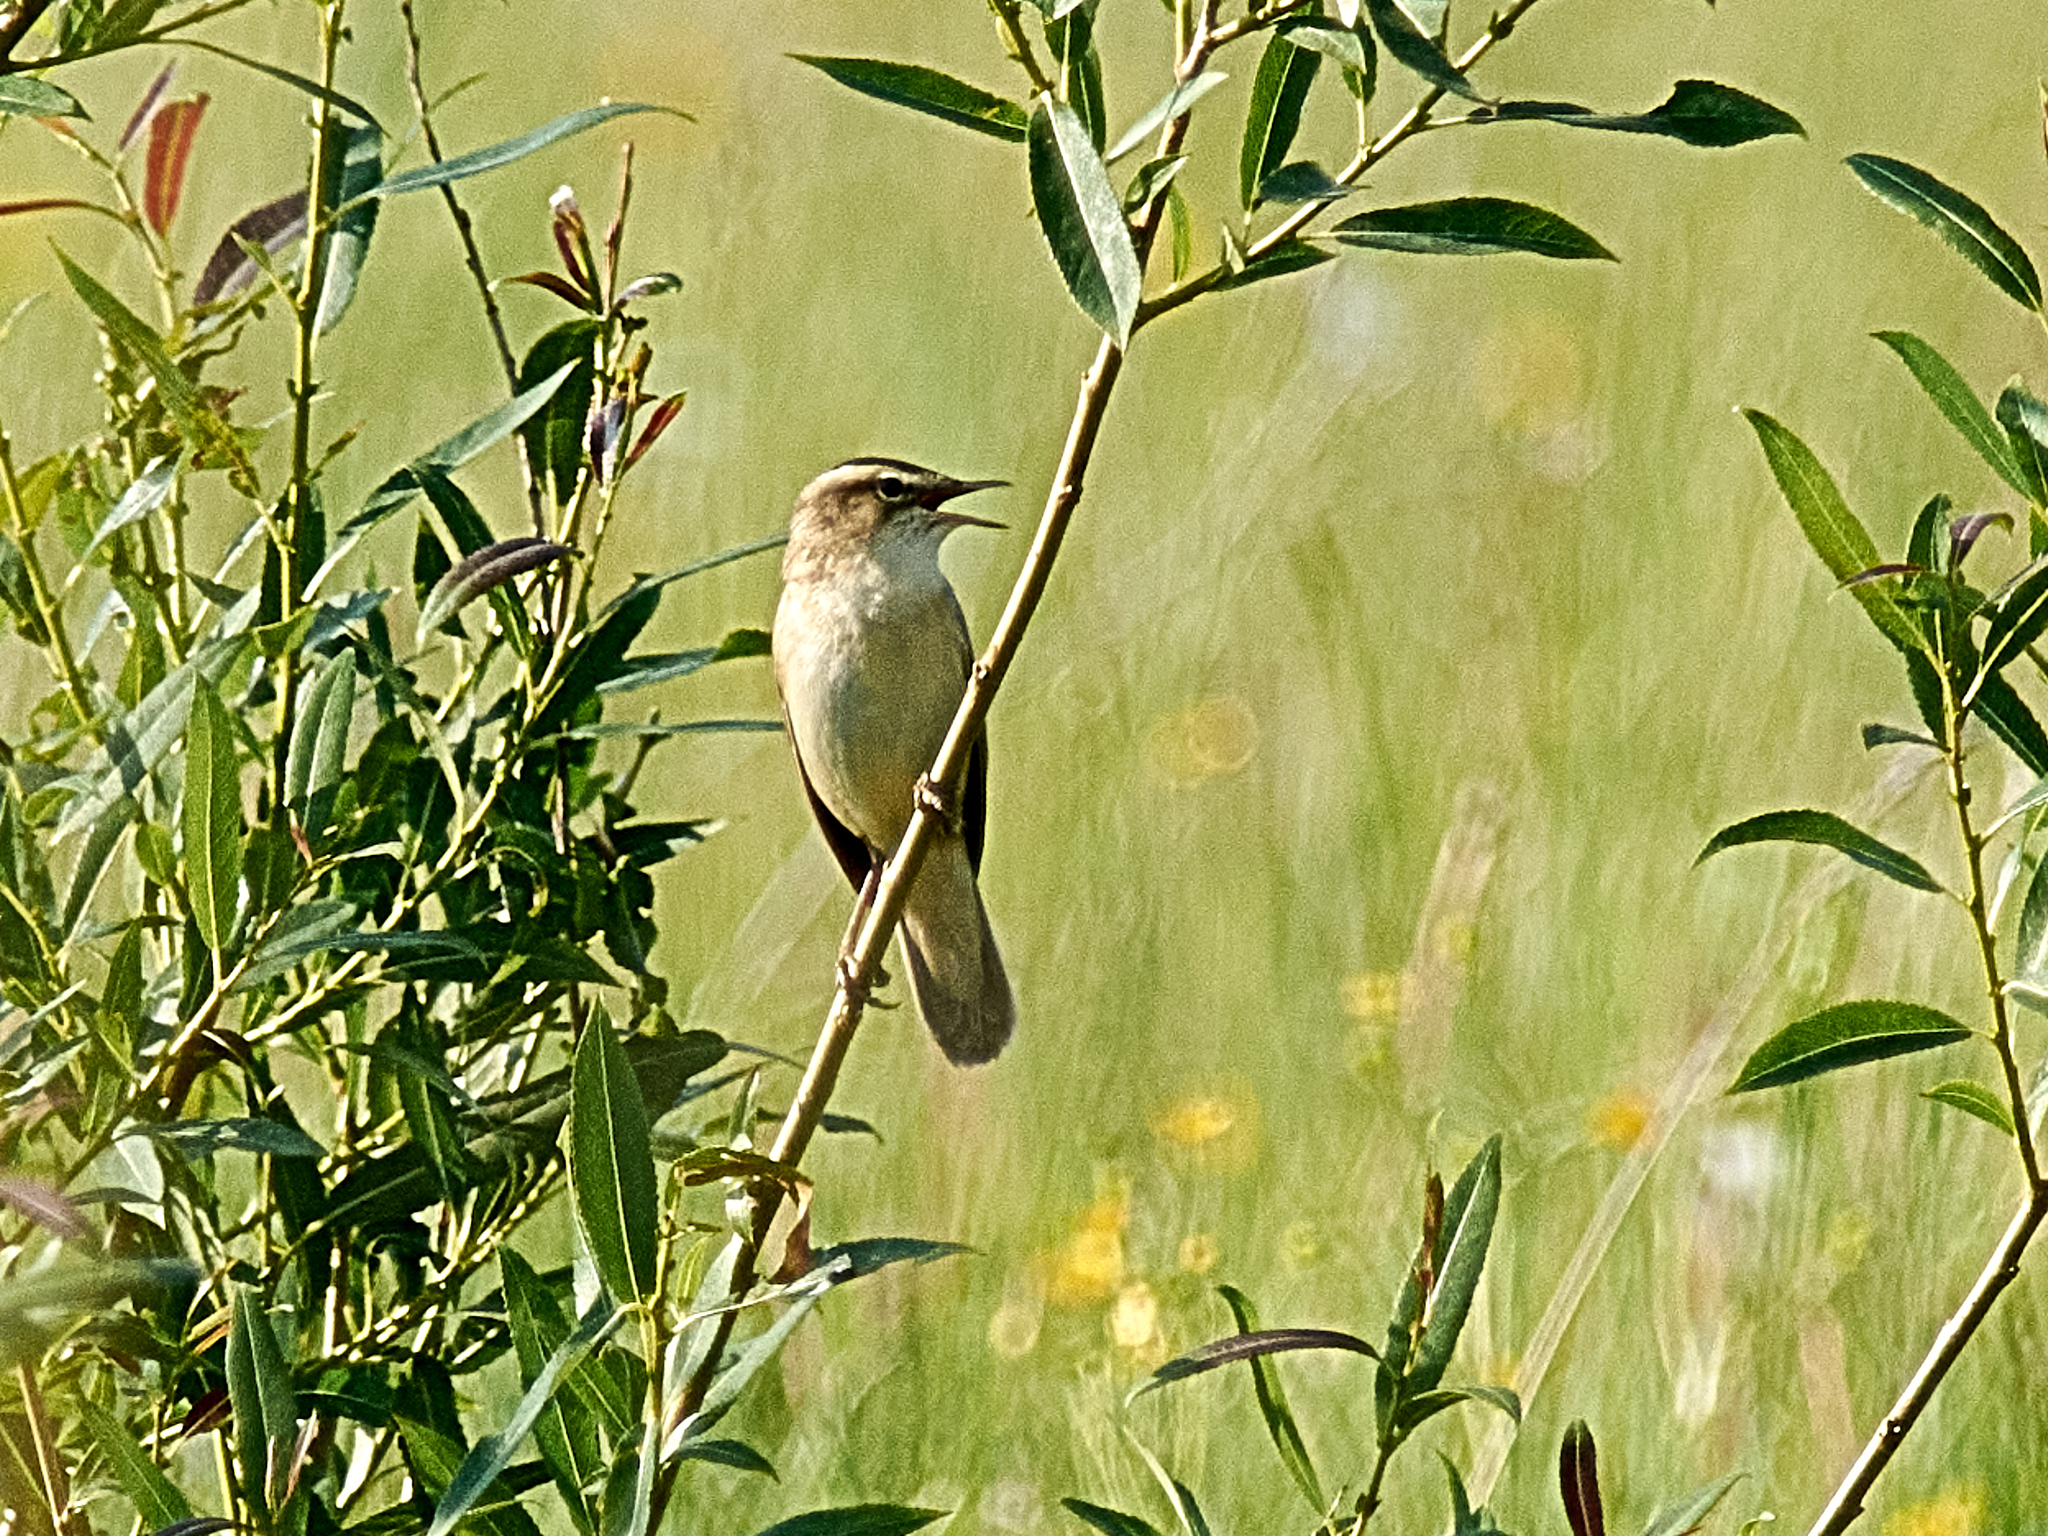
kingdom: Animalia
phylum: Chordata
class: Aves
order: Passeriformes
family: Acrocephalidae
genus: Acrocephalus
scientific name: Acrocephalus schoenobaenus
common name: Sedge warbler
